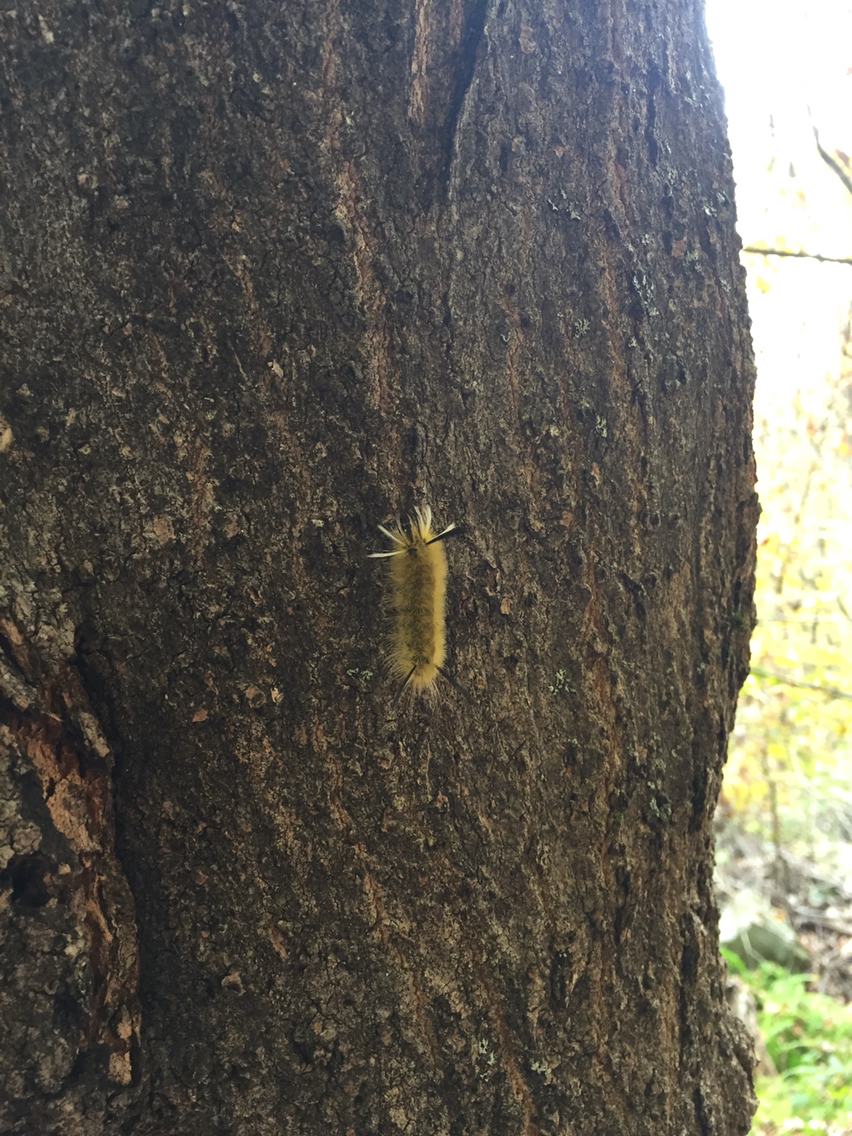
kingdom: Animalia
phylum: Arthropoda
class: Insecta
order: Lepidoptera
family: Erebidae
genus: Halysidota
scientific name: Halysidota tessellaris
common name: Banded tussock moth
